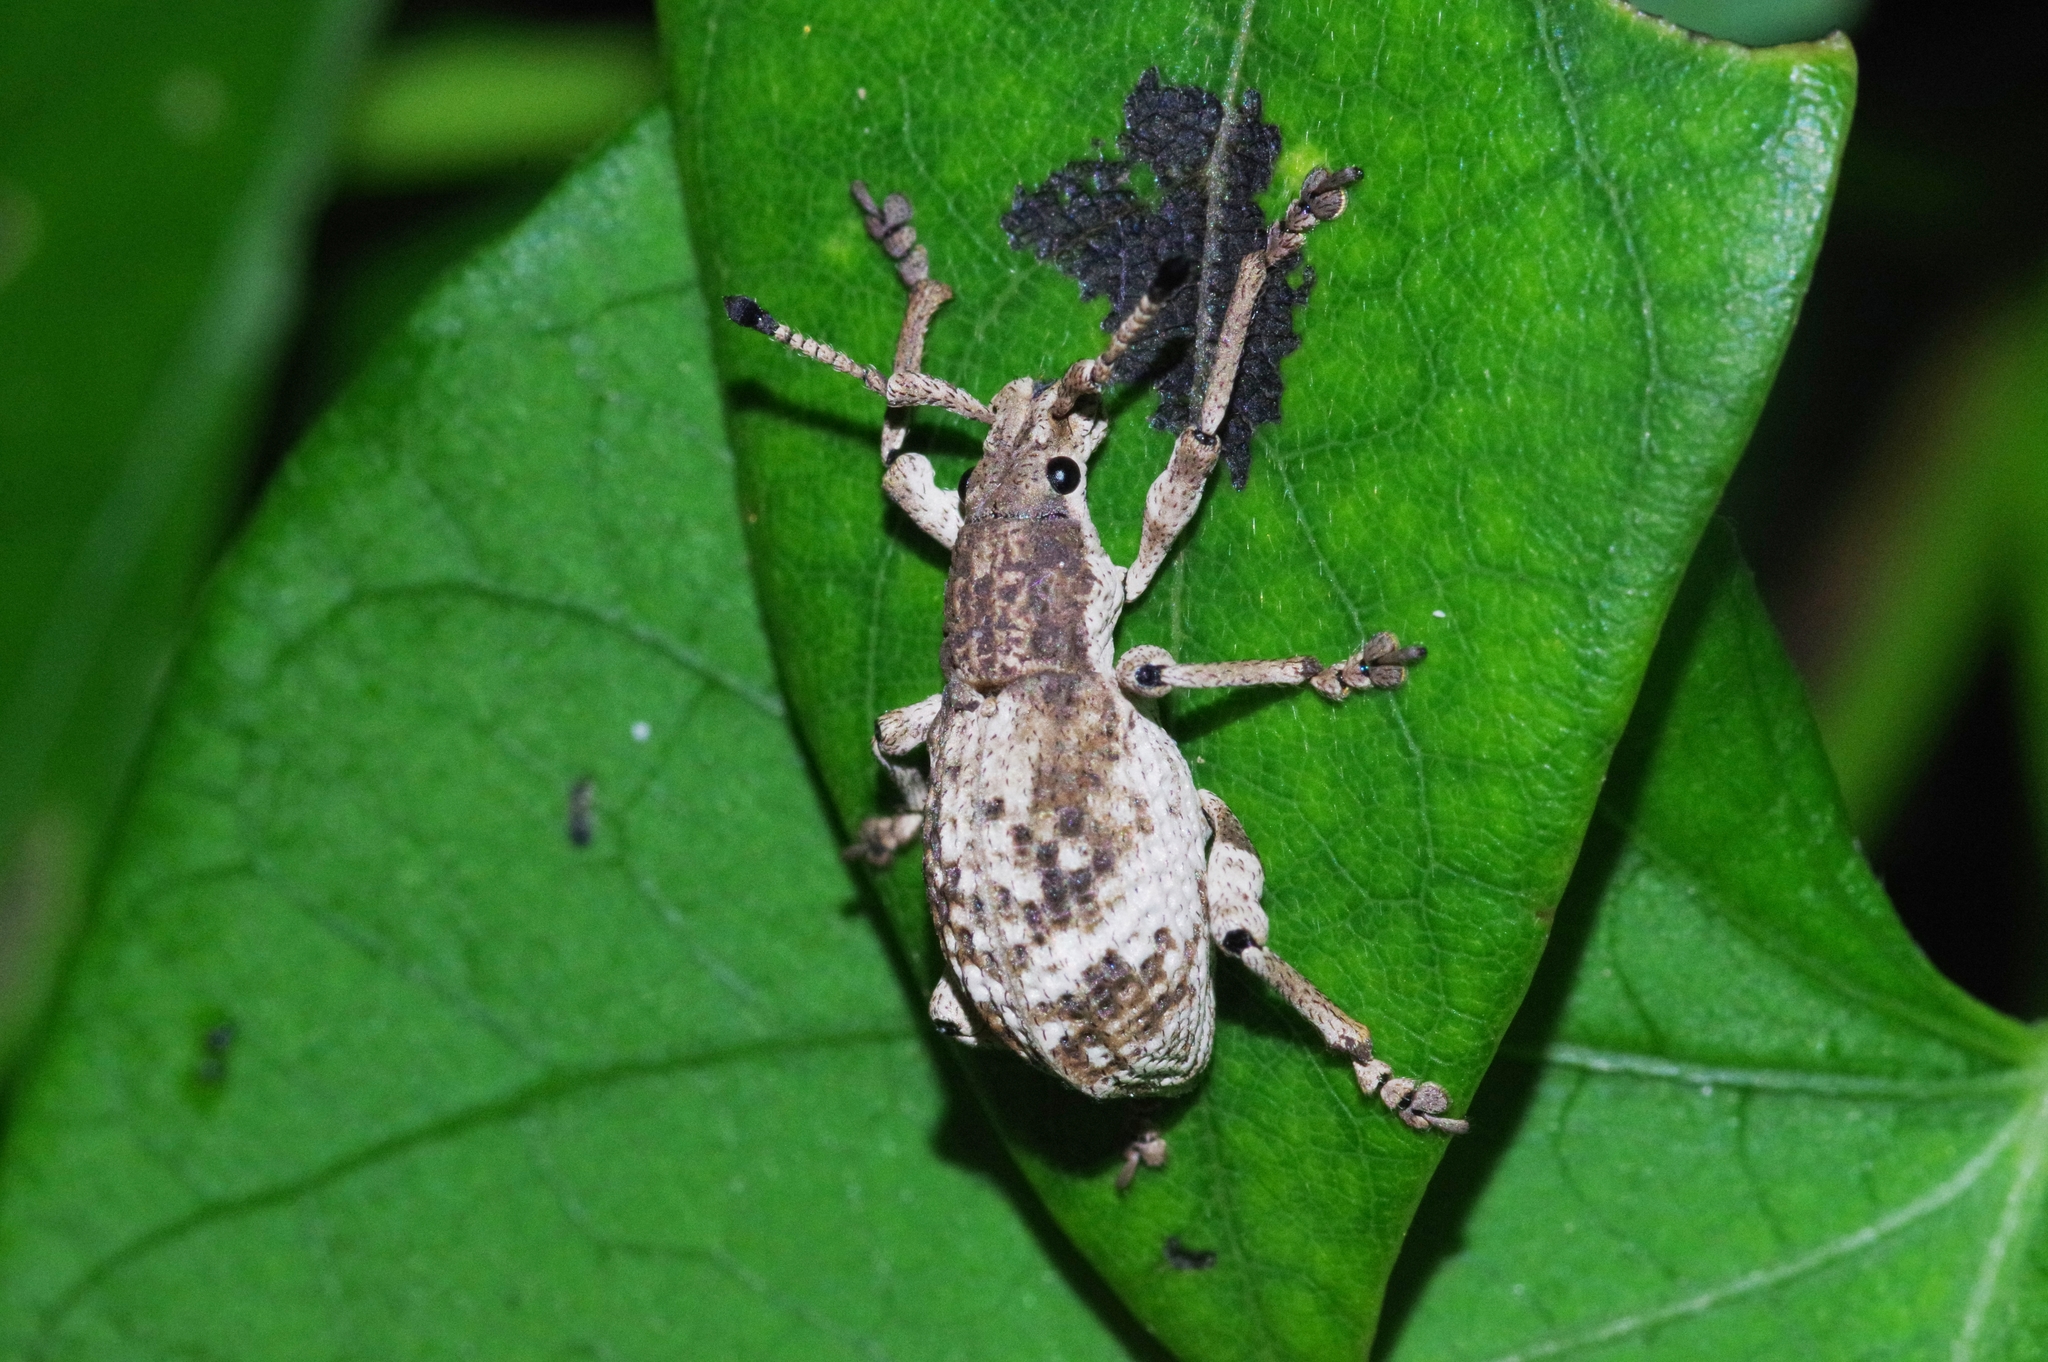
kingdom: Animalia
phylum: Arthropoda
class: Insecta
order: Coleoptera
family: Curculionidae
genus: Episomus
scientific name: Episomus mori
